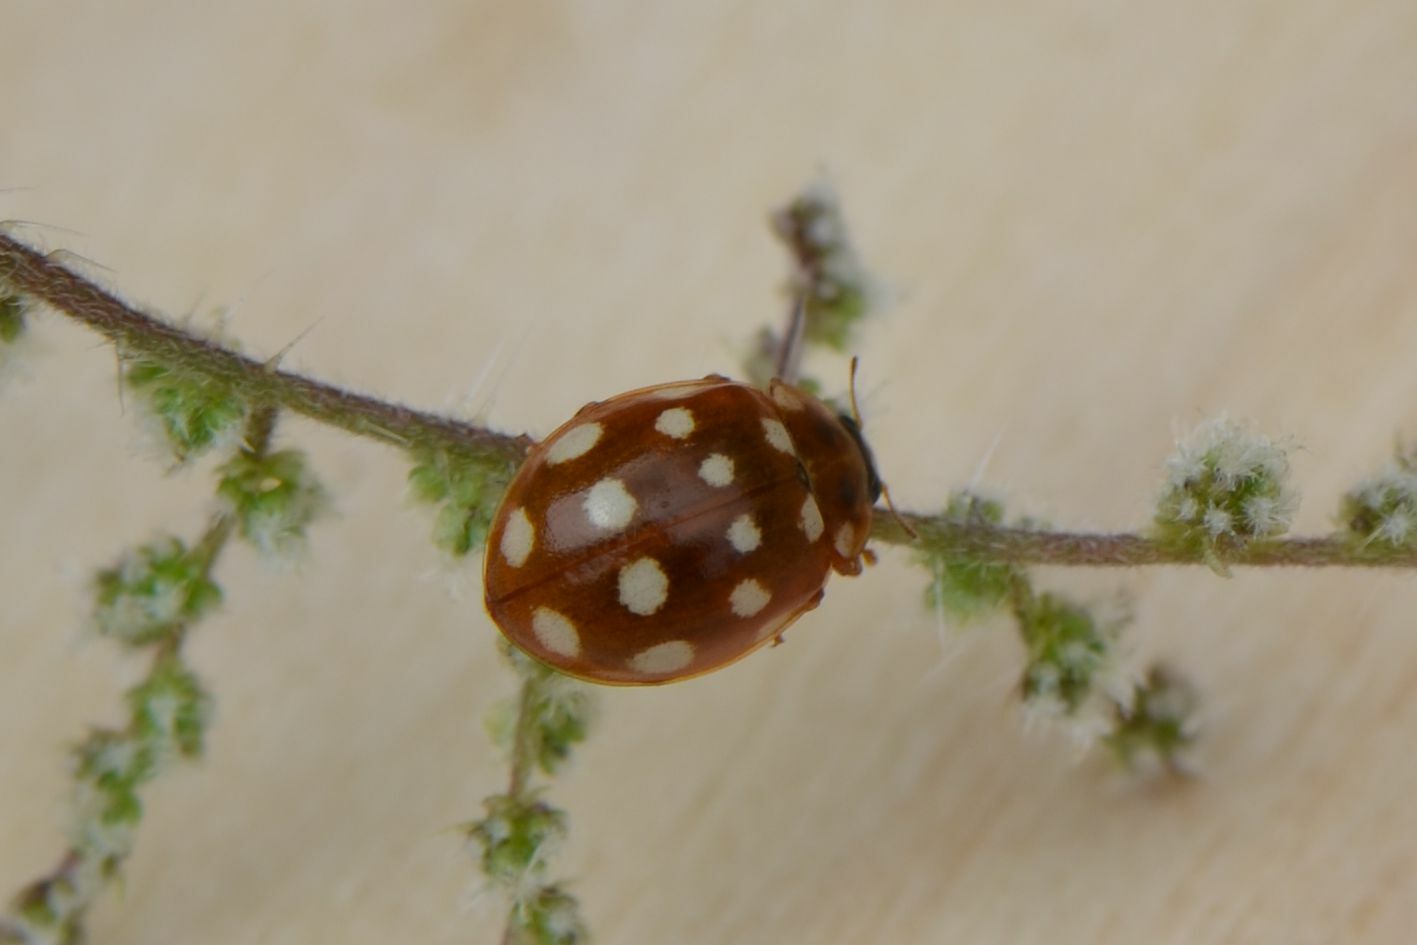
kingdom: Animalia
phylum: Arthropoda
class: Insecta
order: Coleoptera
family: Coccinellidae
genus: Calvia
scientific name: Calvia quatuordecimguttata
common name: Cream-spot ladybird
